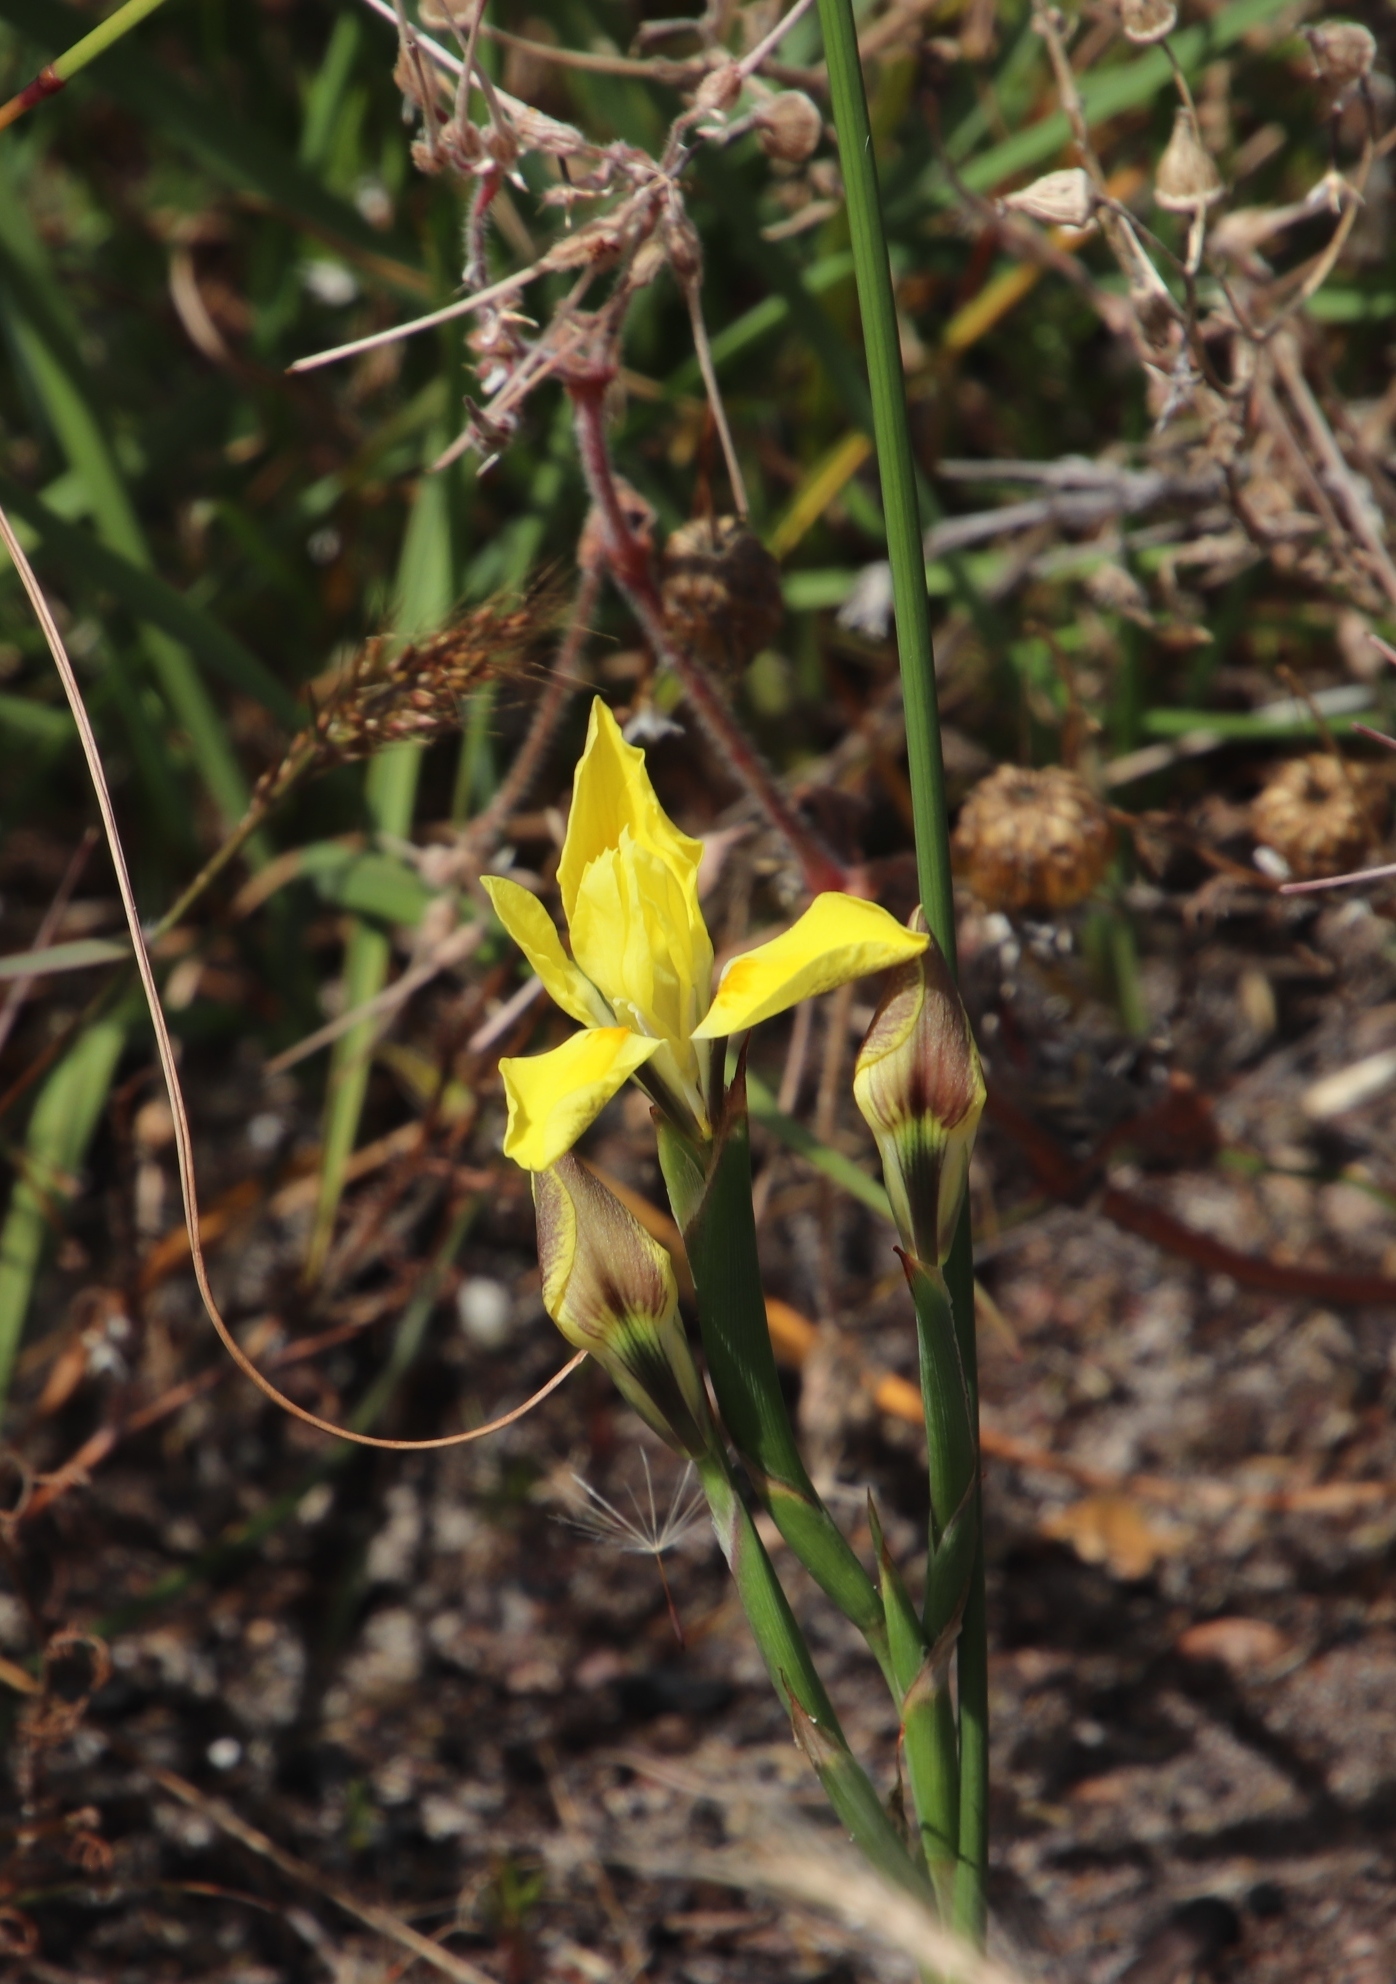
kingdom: Plantae
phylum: Tracheophyta
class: Liliopsida
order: Asparagales
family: Iridaceae
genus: Moraea
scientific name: Moraea fugax
